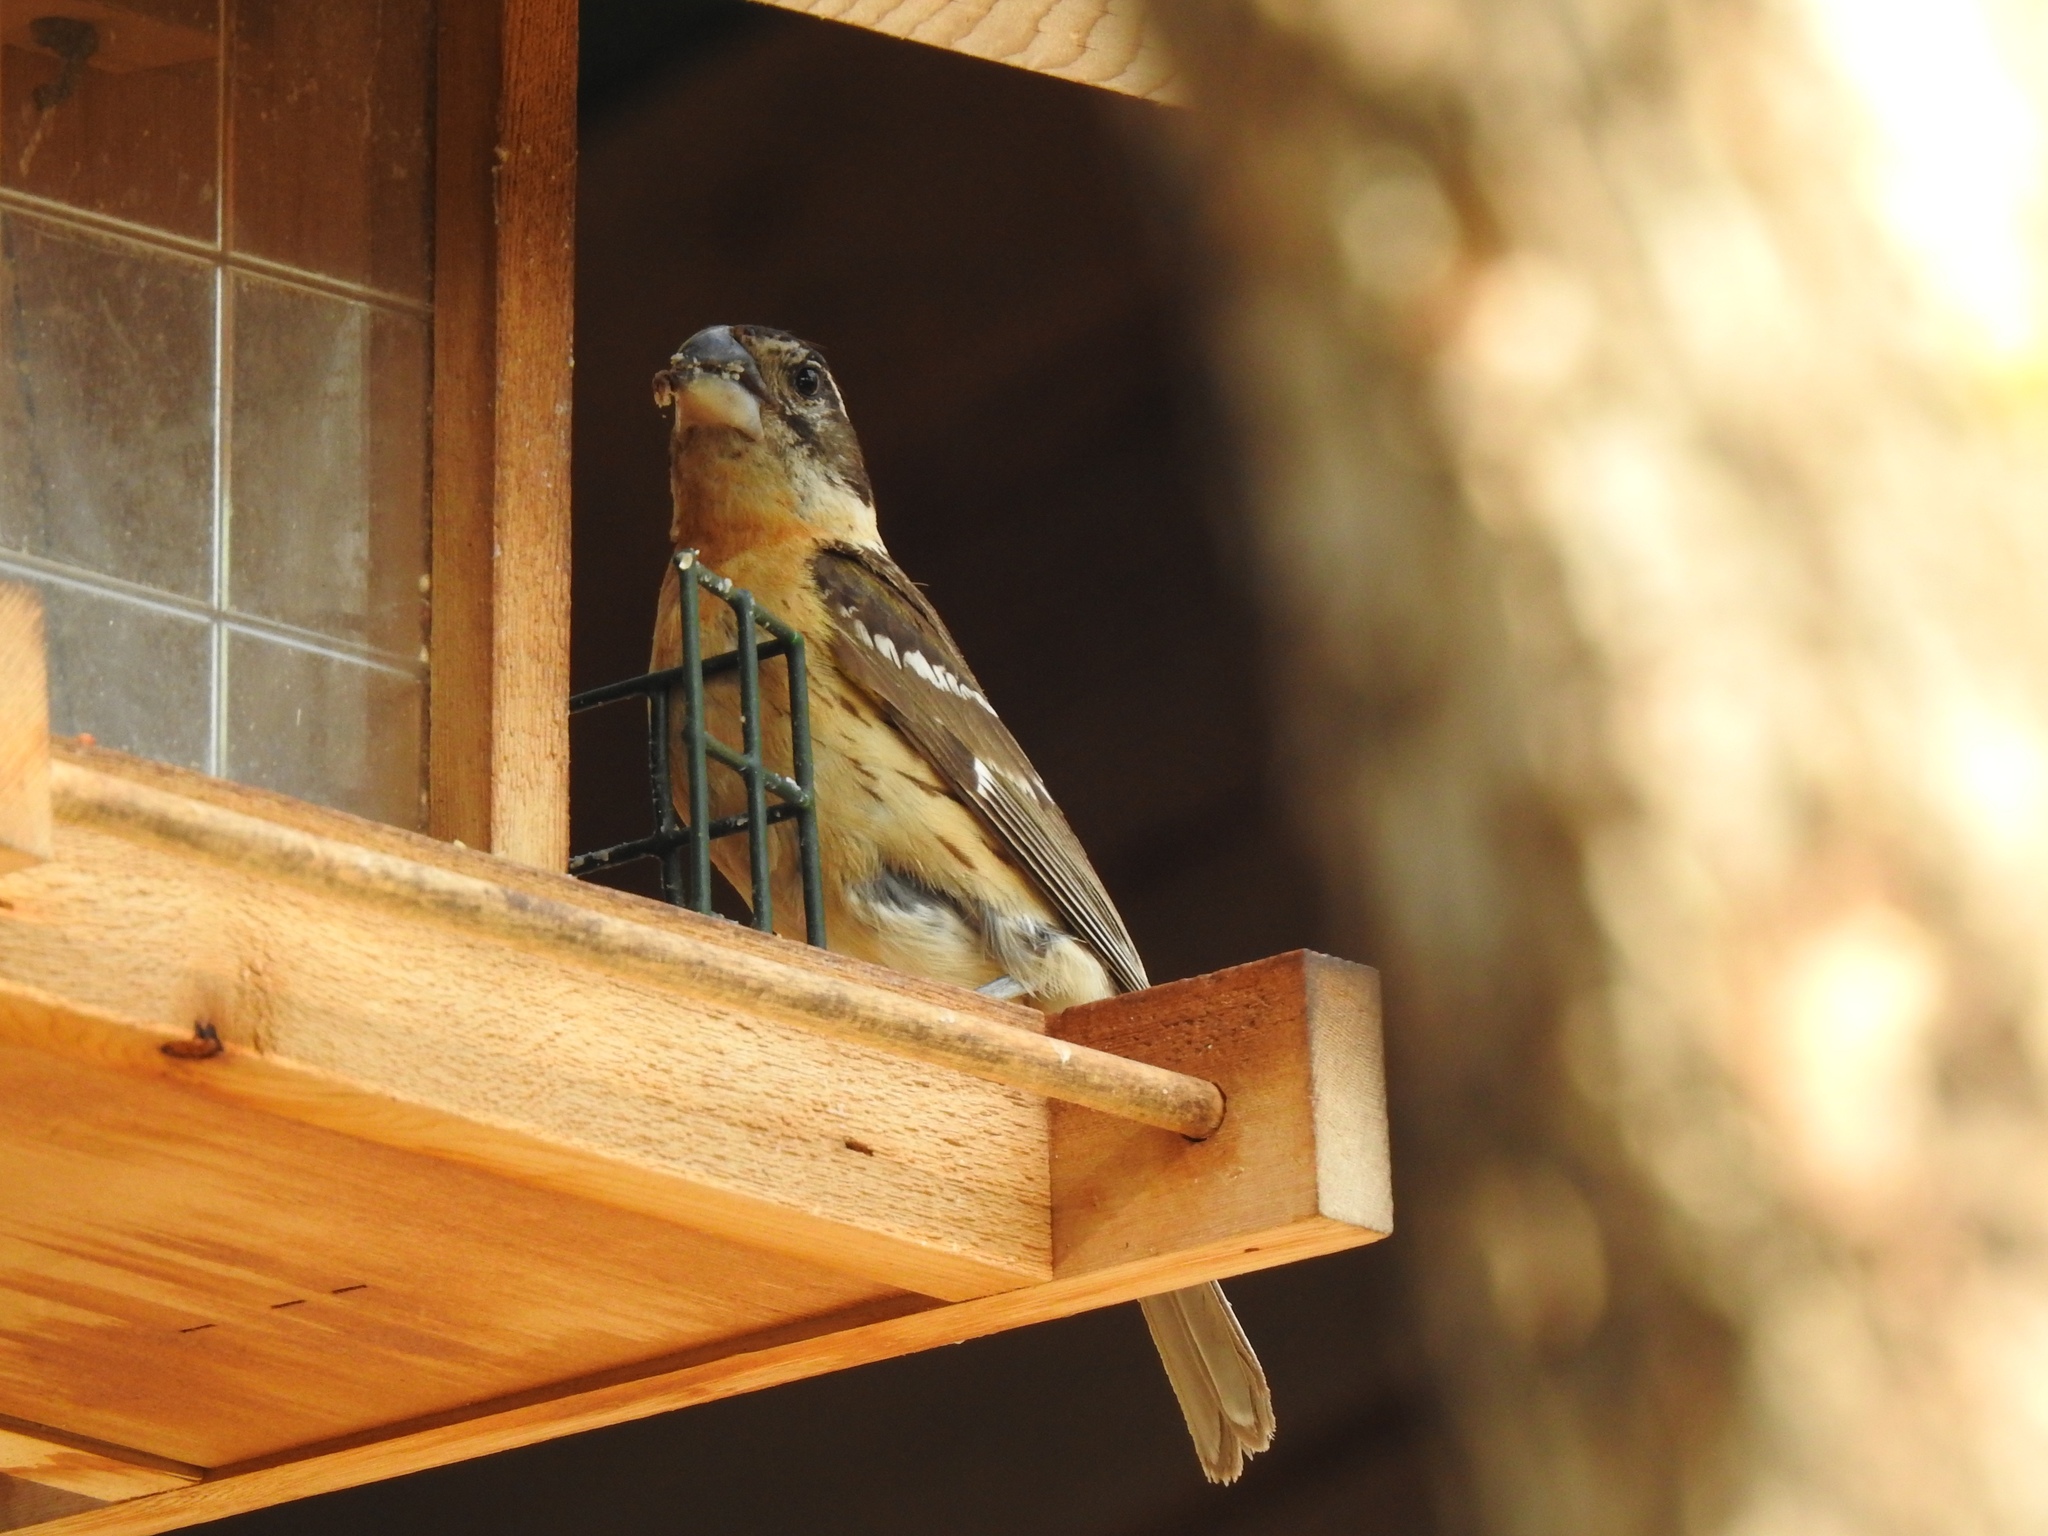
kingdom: Animalia
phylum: Chordata
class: Aves
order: Passeriformes
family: Cardinalidae
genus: Pheucticus
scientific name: Pheucticus melanocephalus
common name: Black-headed grosbeak
